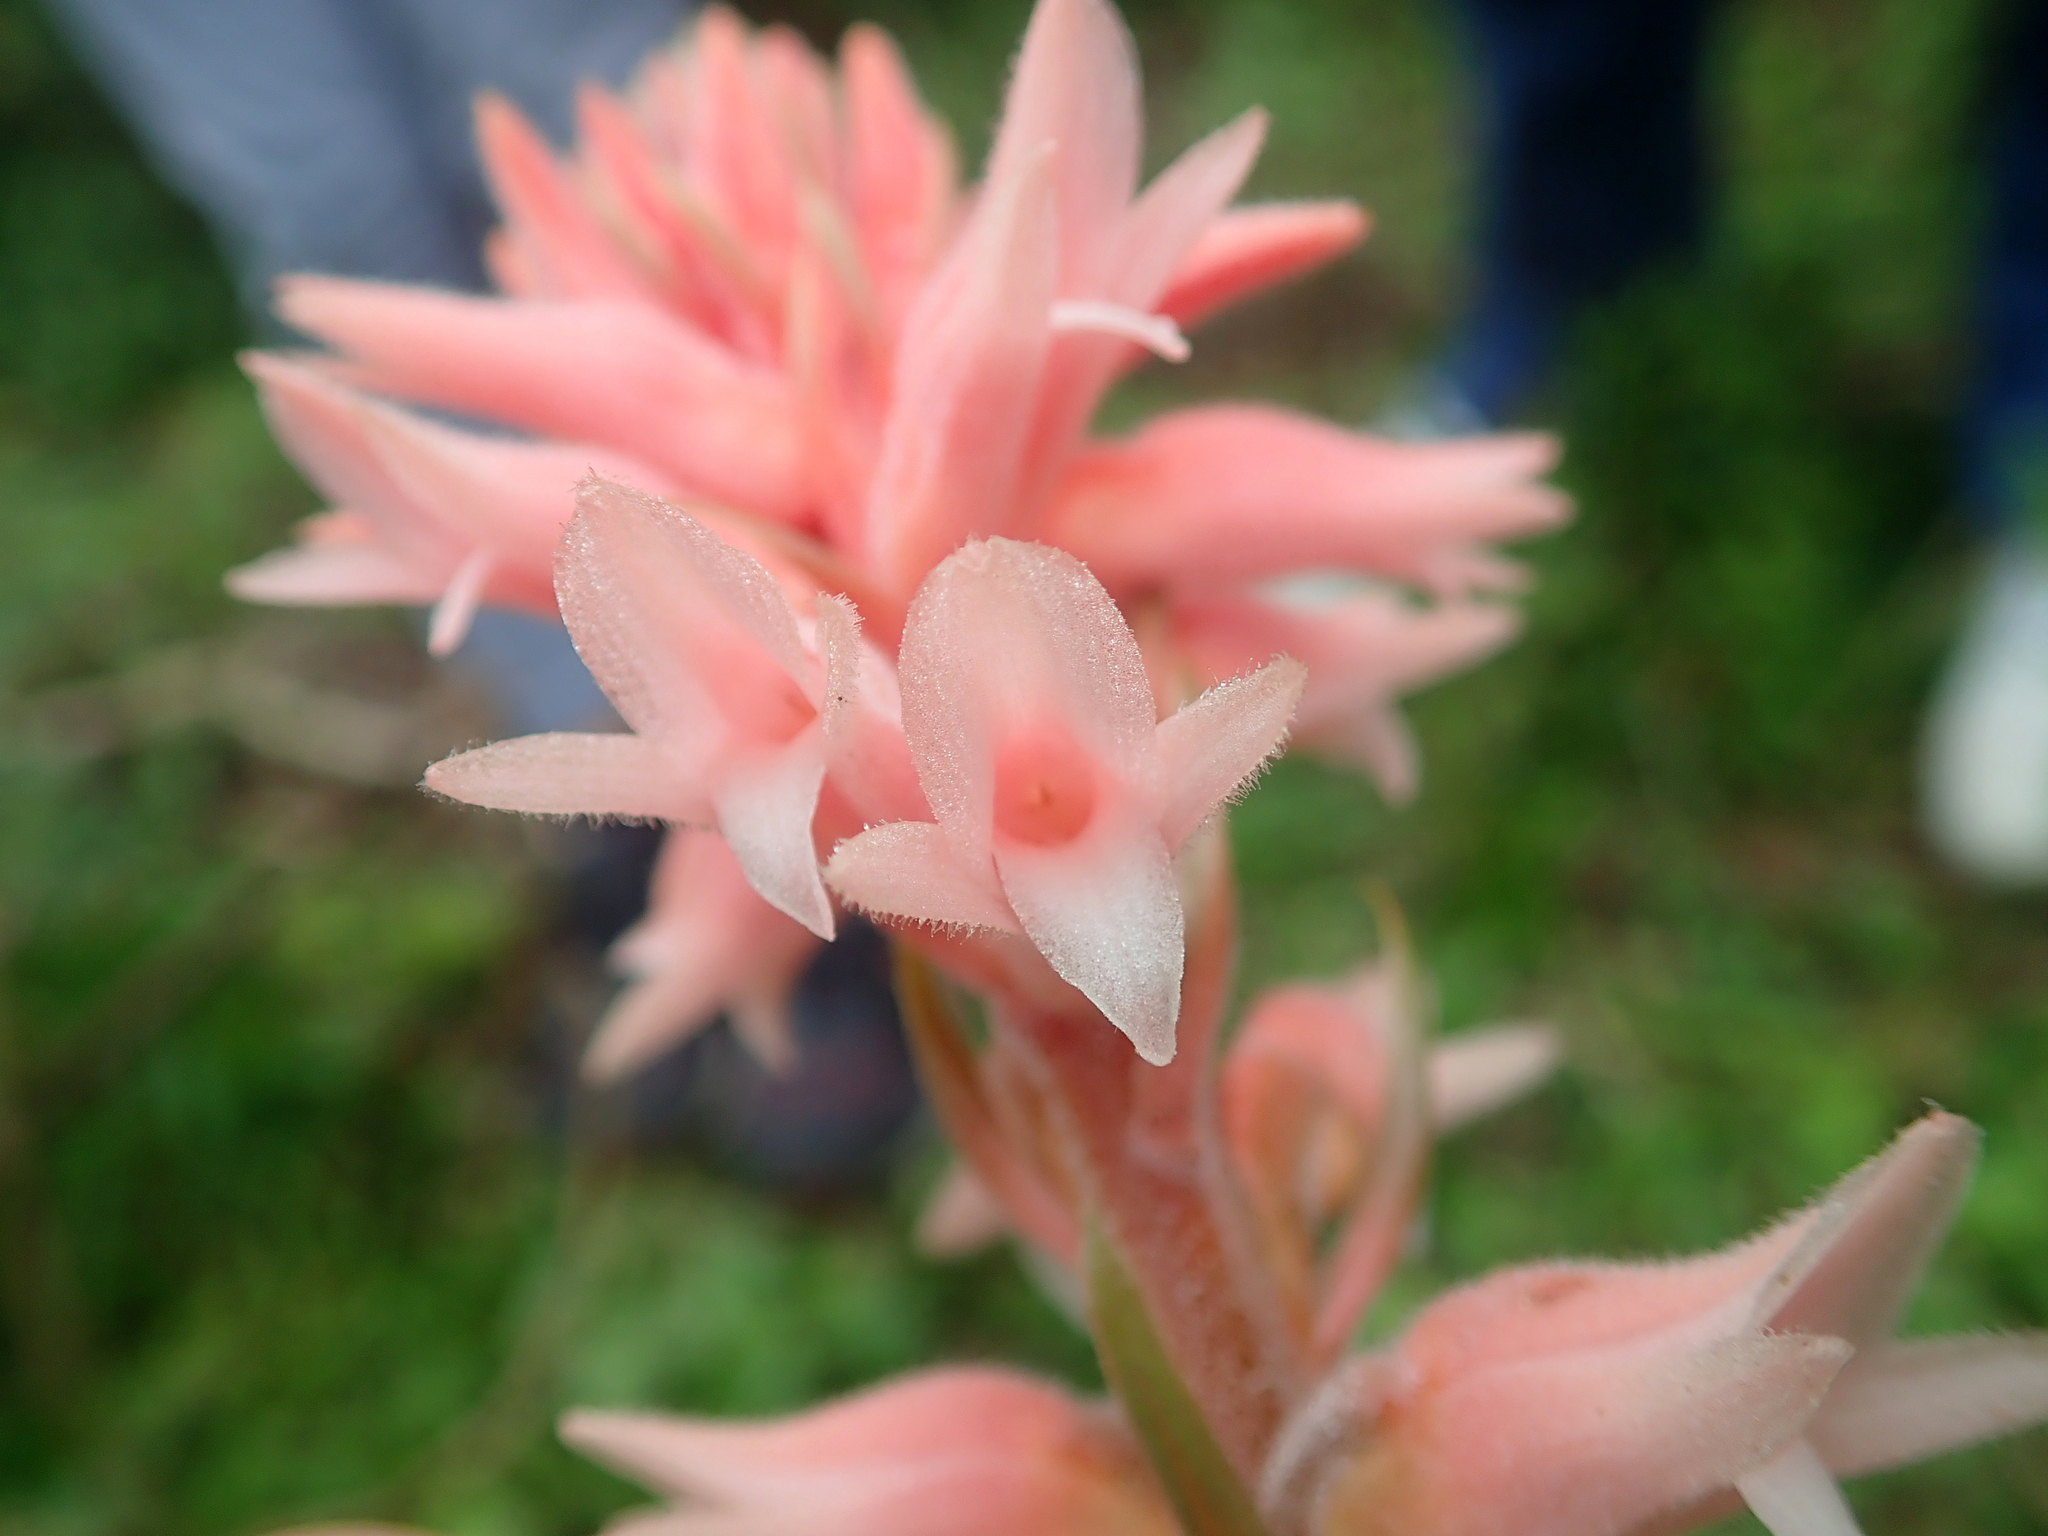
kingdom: Plantae
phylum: Tracheophyta
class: Liliopsida
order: Asparagales
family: Orchidaceae
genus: Sacoila
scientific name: Sacoila lanceolata
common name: Leafless beaked ladiestresses
